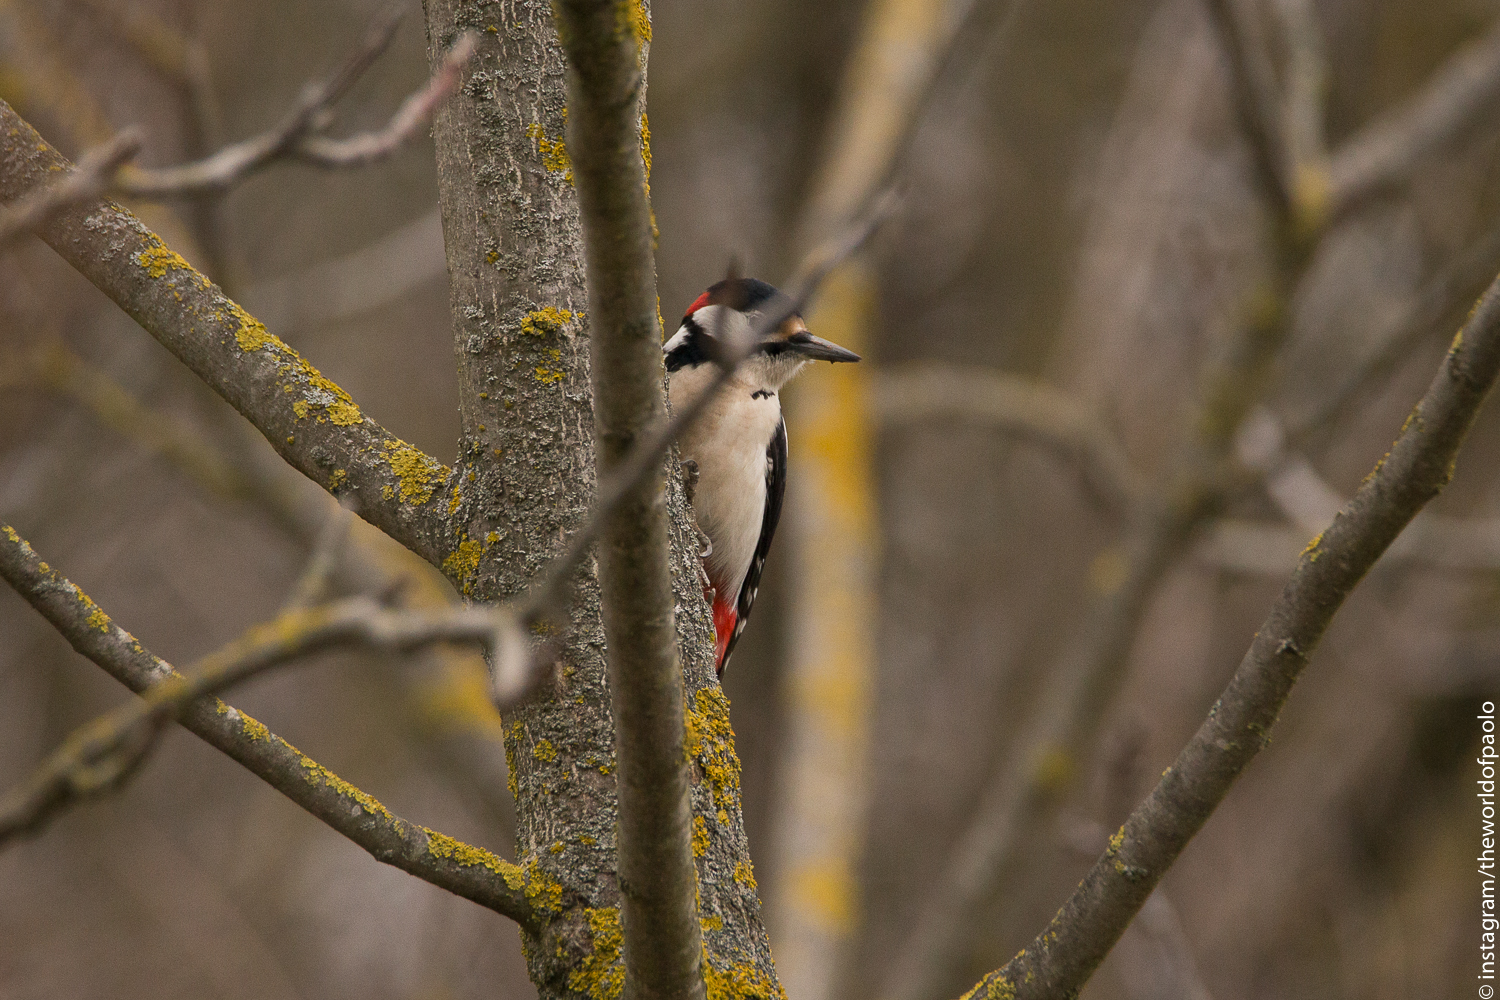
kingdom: Animalia
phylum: Chordata
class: Aves
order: Piciformes
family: Picidae
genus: Dendrocopos
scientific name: Dendrocopos major
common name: Great spotted woodpecker
